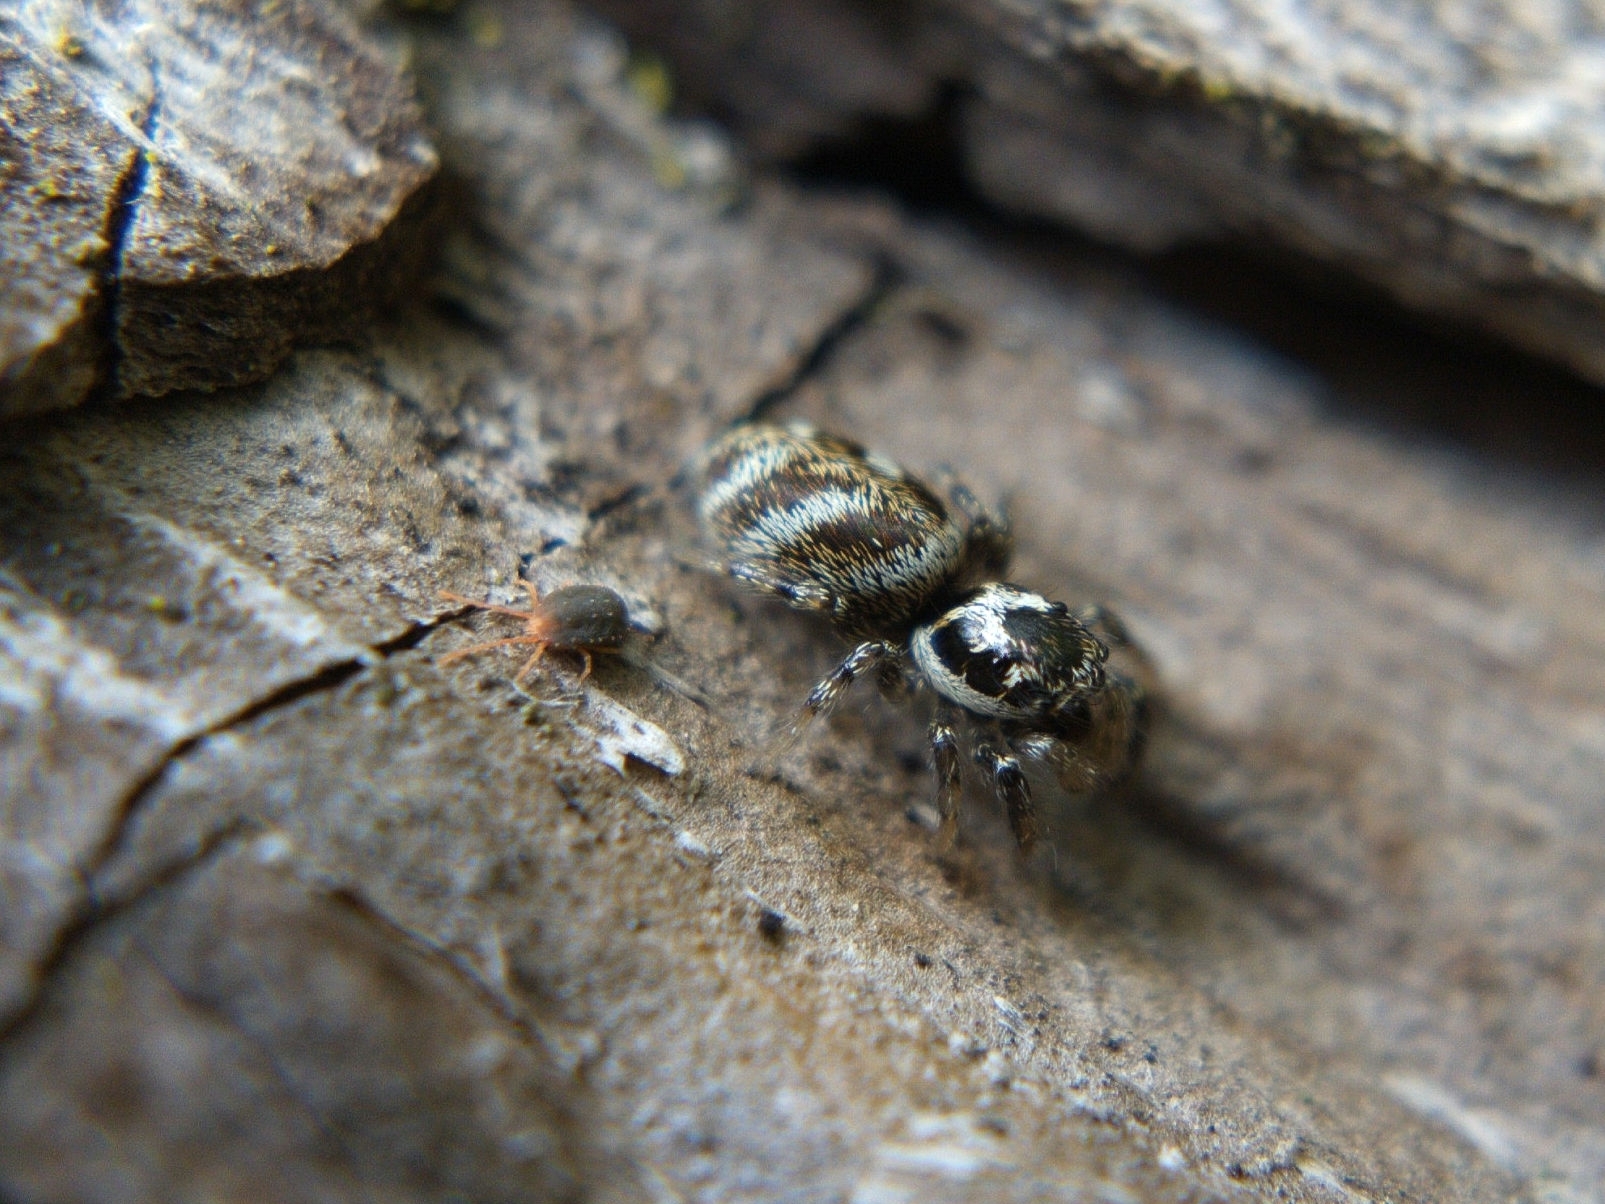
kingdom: Animalia
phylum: Arthropoda
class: Arachnida
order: Araneae
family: Salticidae
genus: Salticus
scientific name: Salticus scenicus
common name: Zebra jumper
